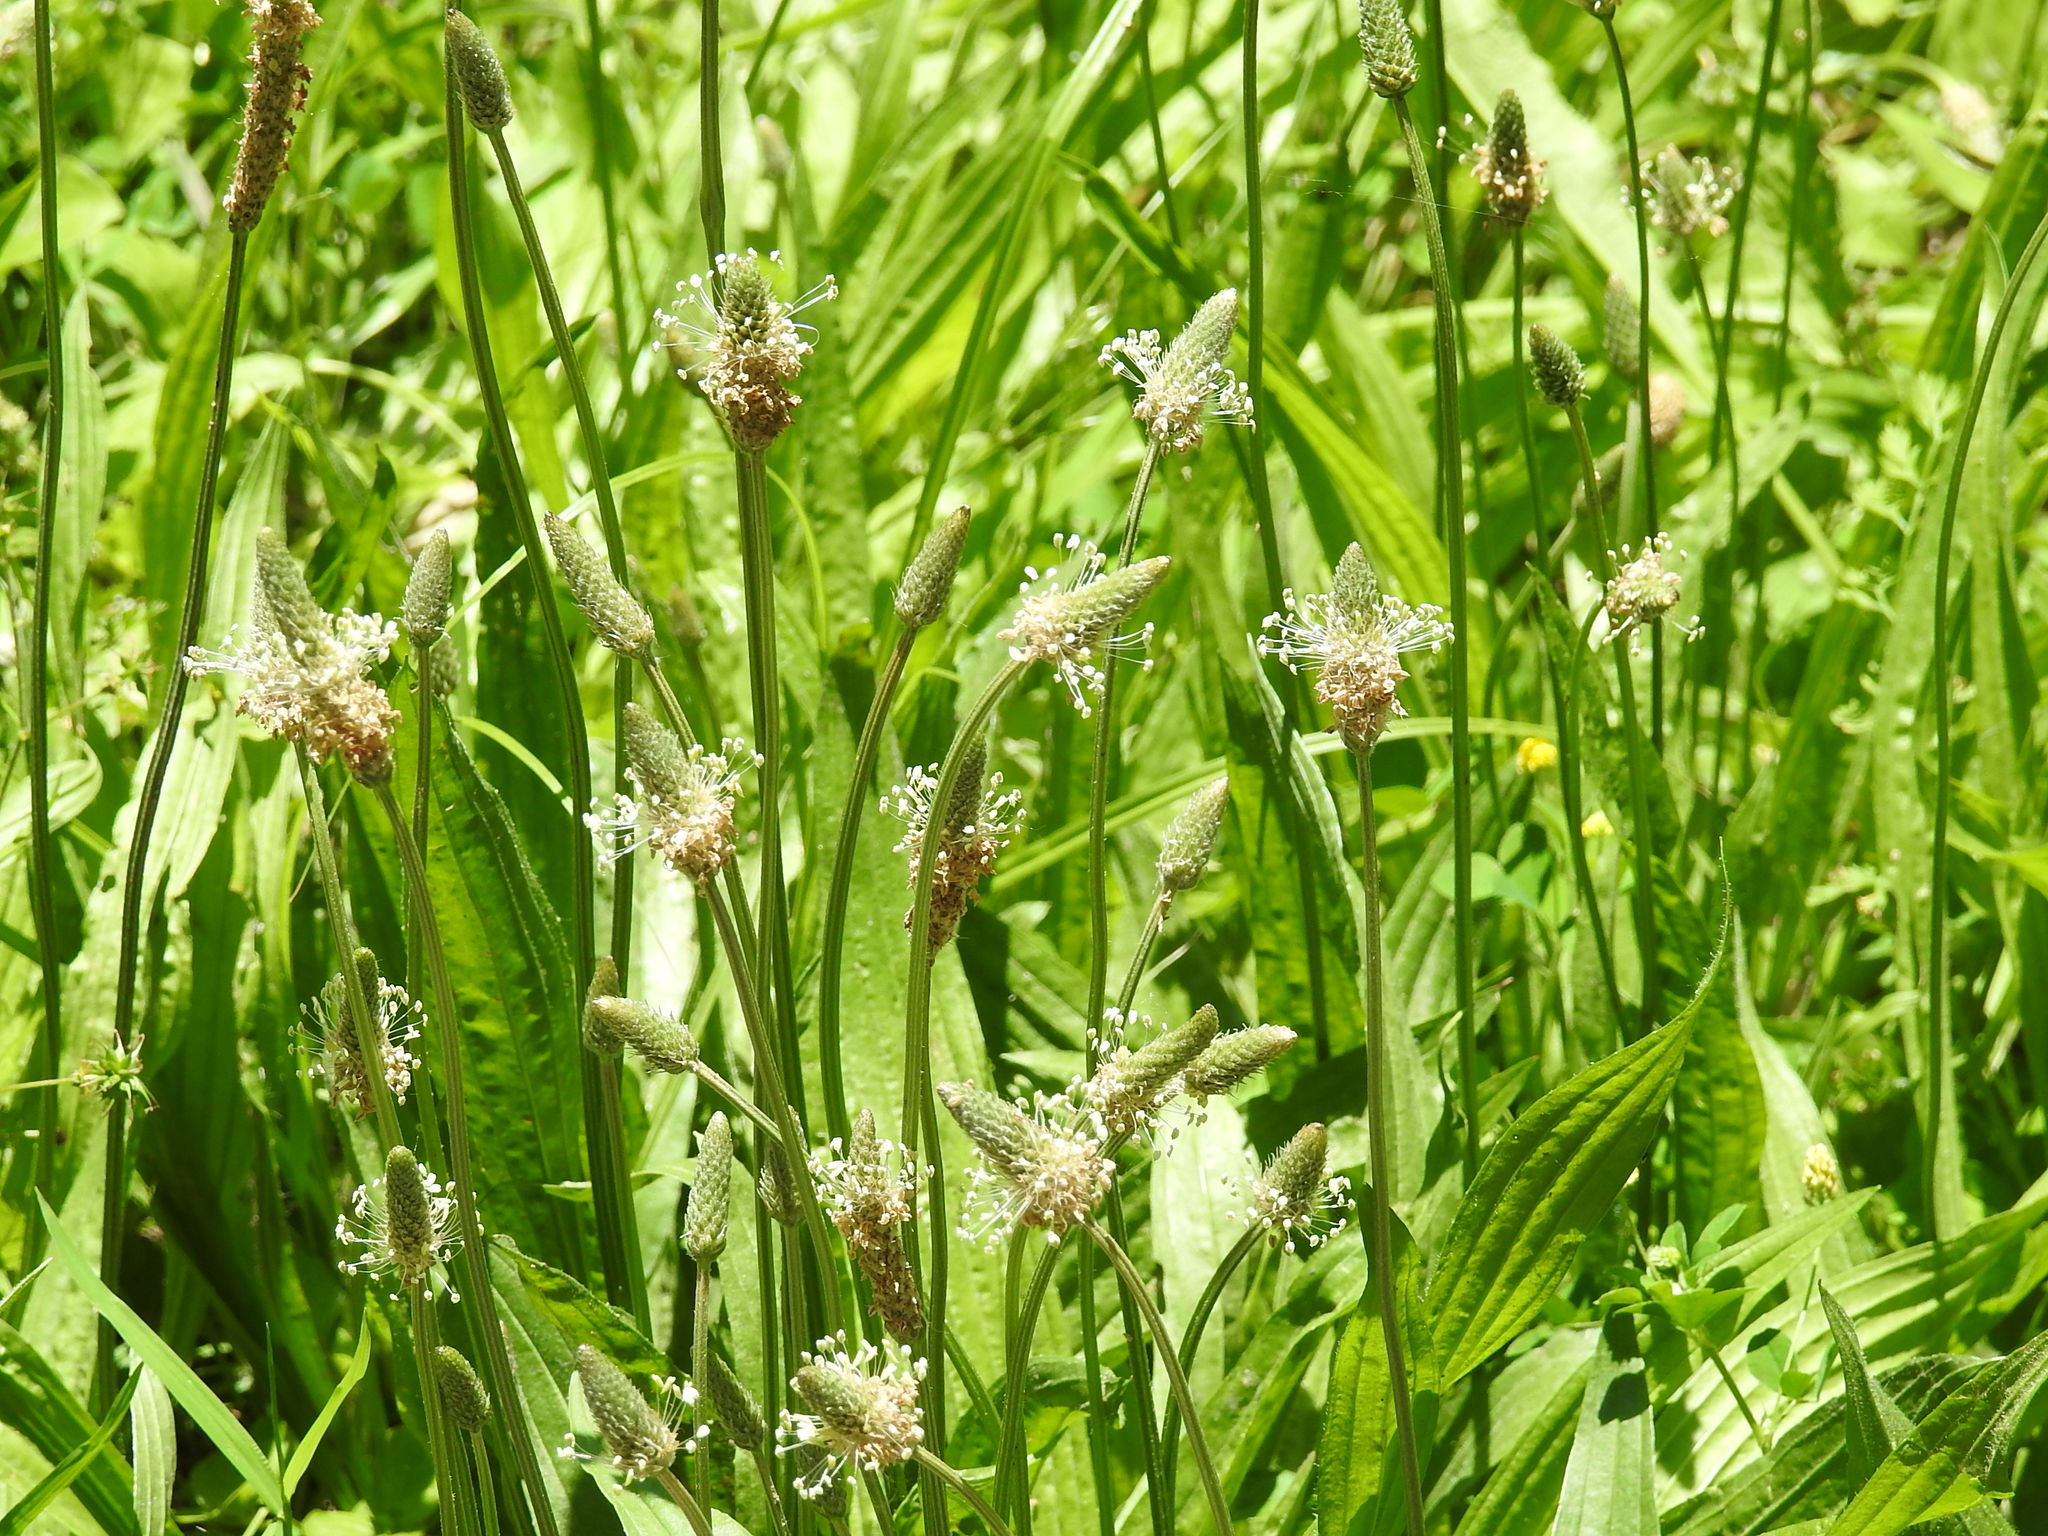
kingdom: Plantae
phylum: Tracheophyta
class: Magnoliopsida
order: Lamiales
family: Plantaginaceae
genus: Plantago
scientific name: Plantago lanceolata
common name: Ribwort plantain
